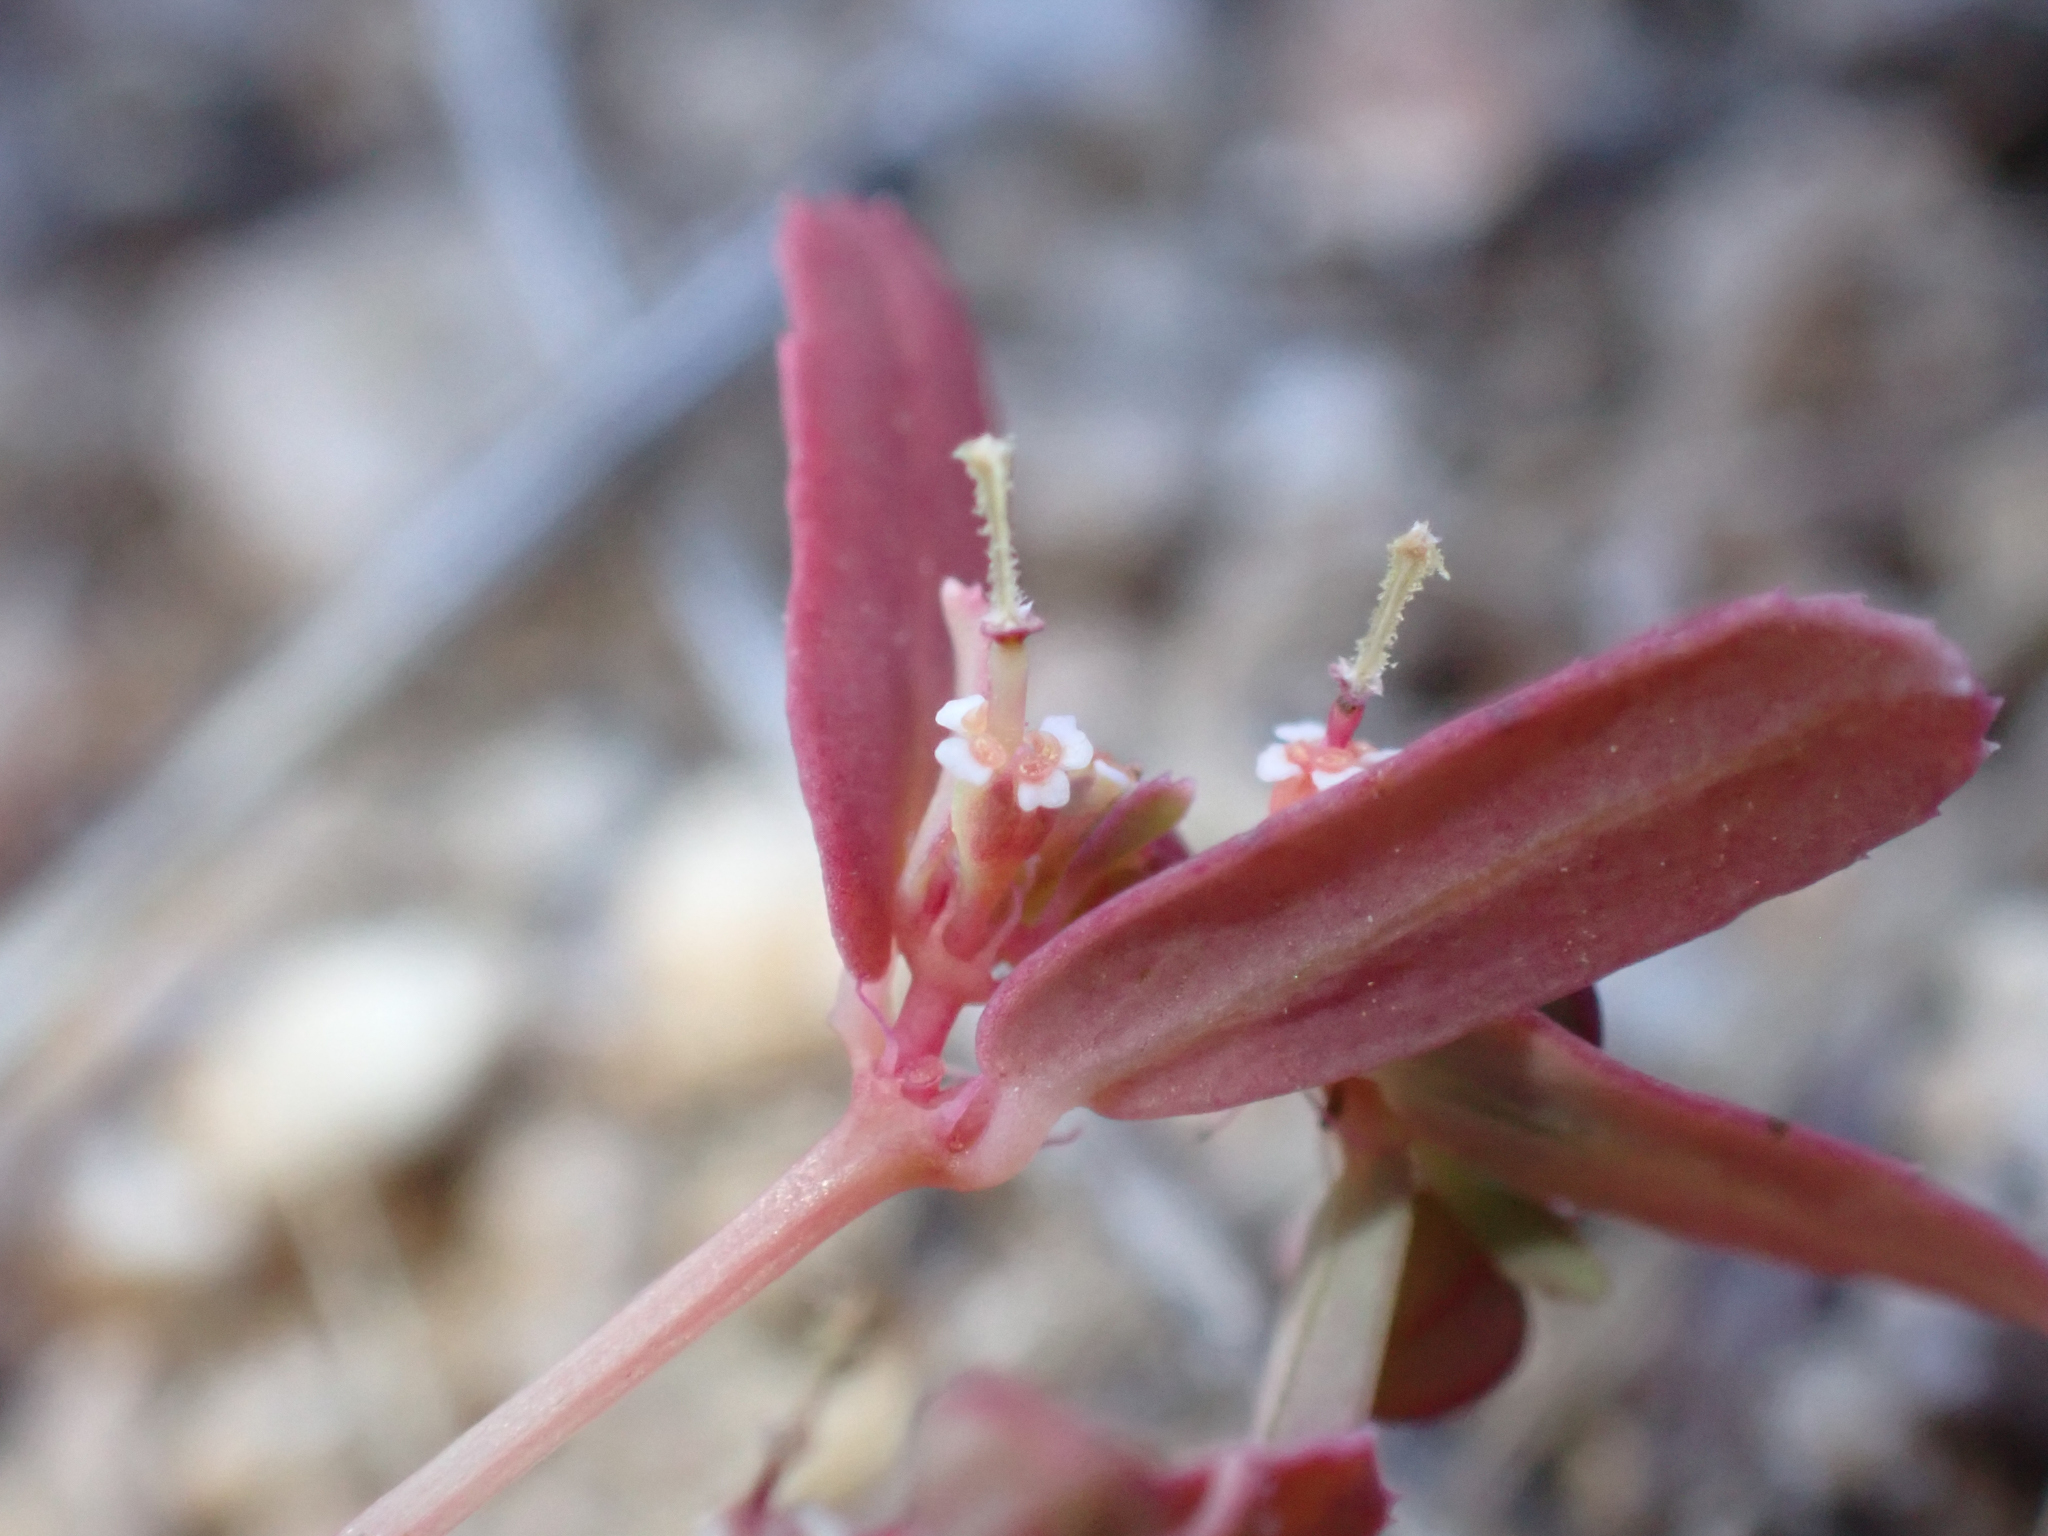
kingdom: Plantae
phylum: Tracheophyta
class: Magnoliopsida
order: Malpighiales
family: Euphorbiaceae
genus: Euphorbia
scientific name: Euphorbia serpillifolia
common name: Thyme-leaf spurge
